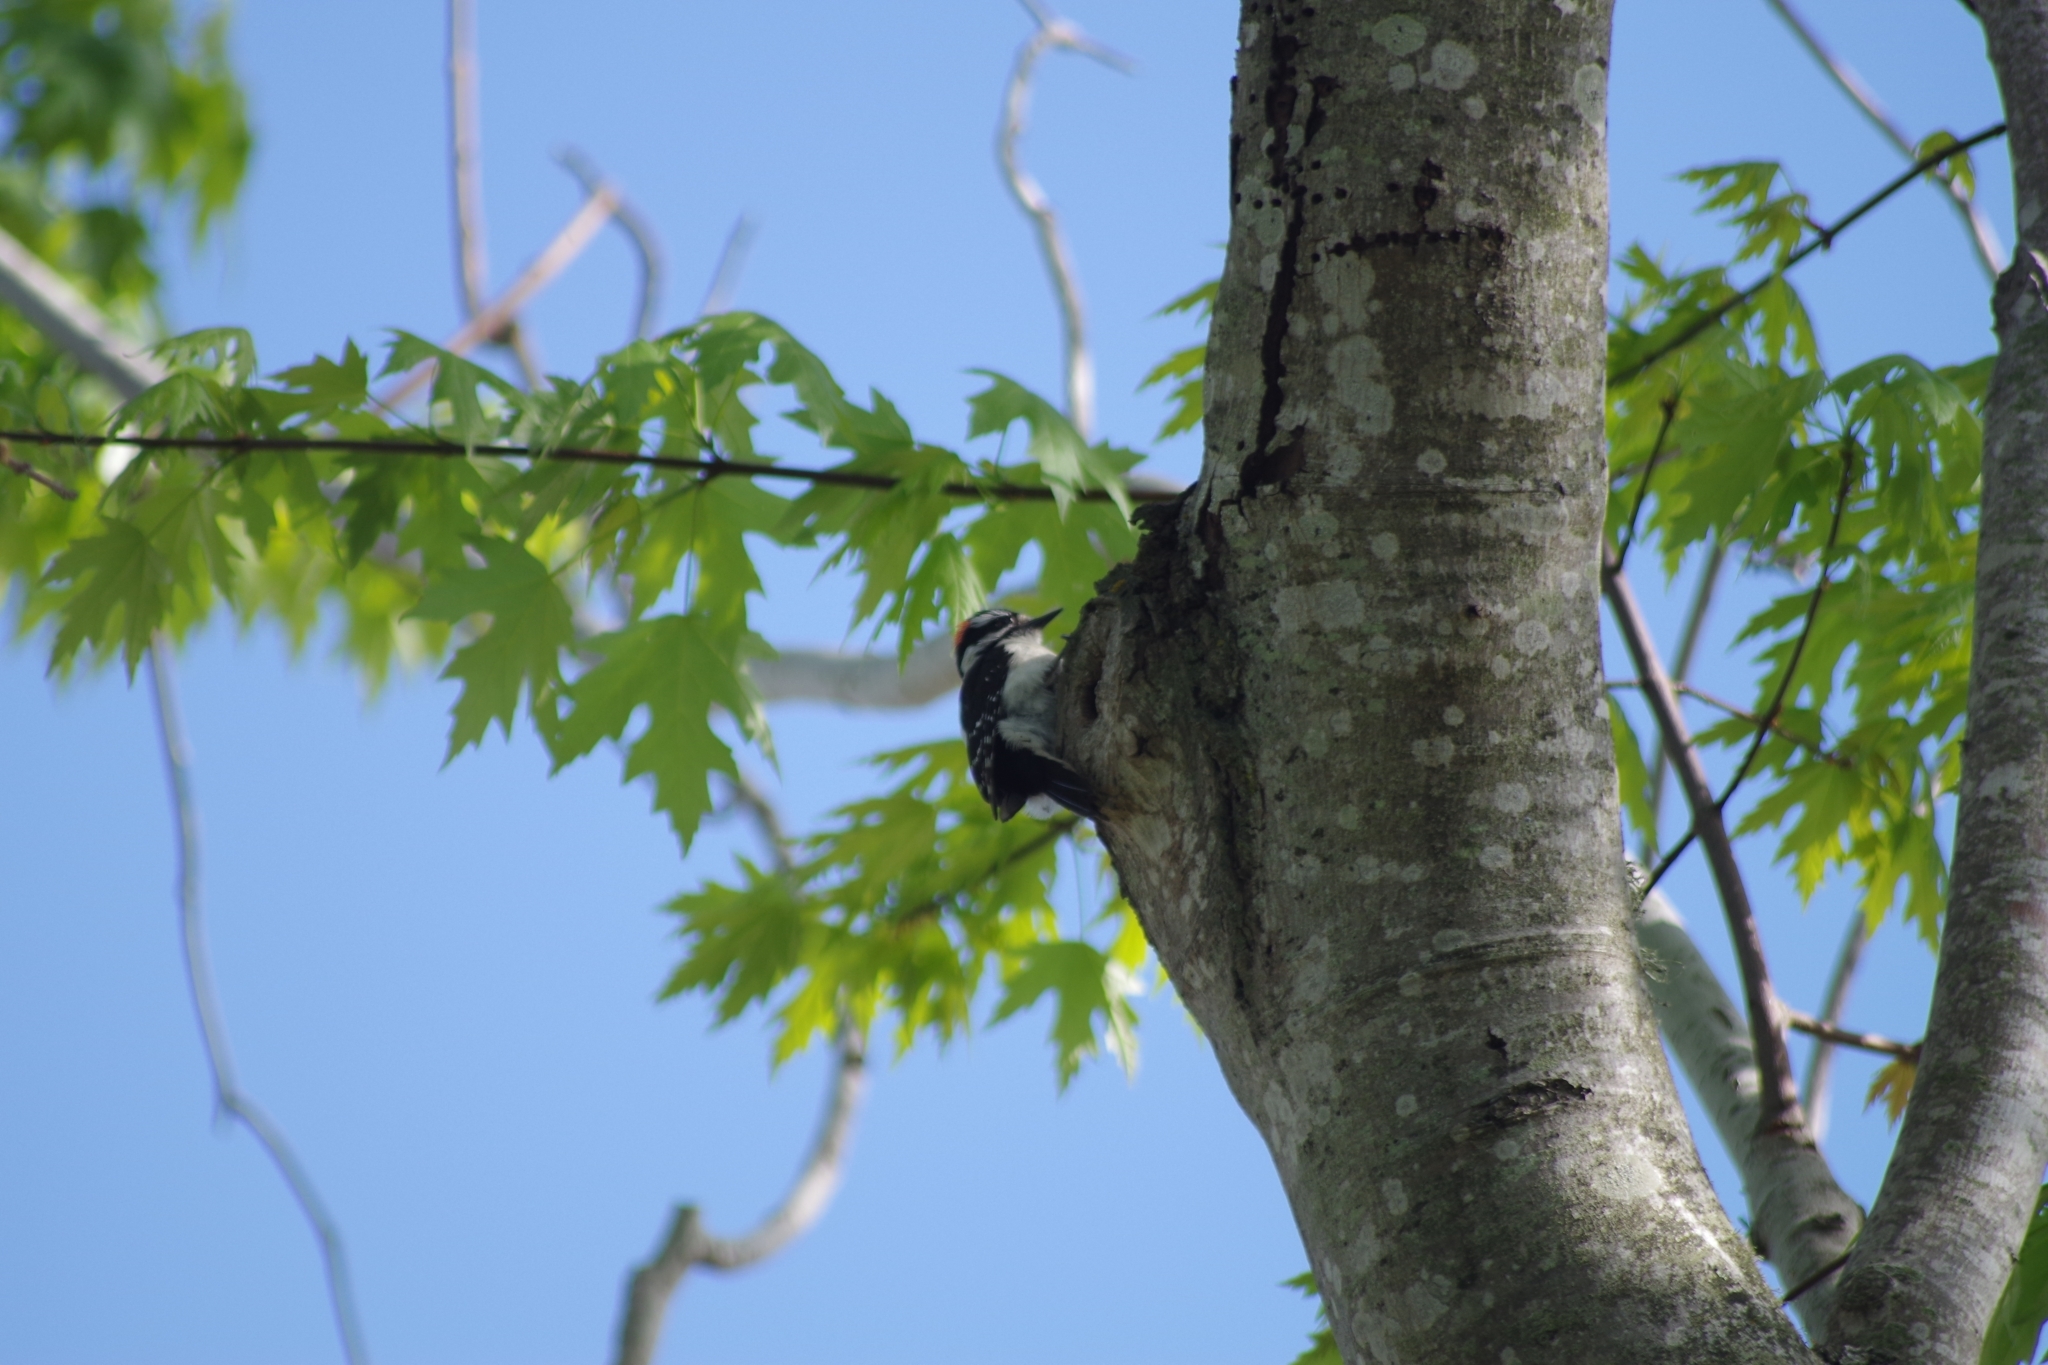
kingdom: Animalia
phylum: Chordata
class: Aves
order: Piciformes
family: Picidae
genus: Dryobates
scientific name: Dryobates pubescens
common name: Downy woodpecker
